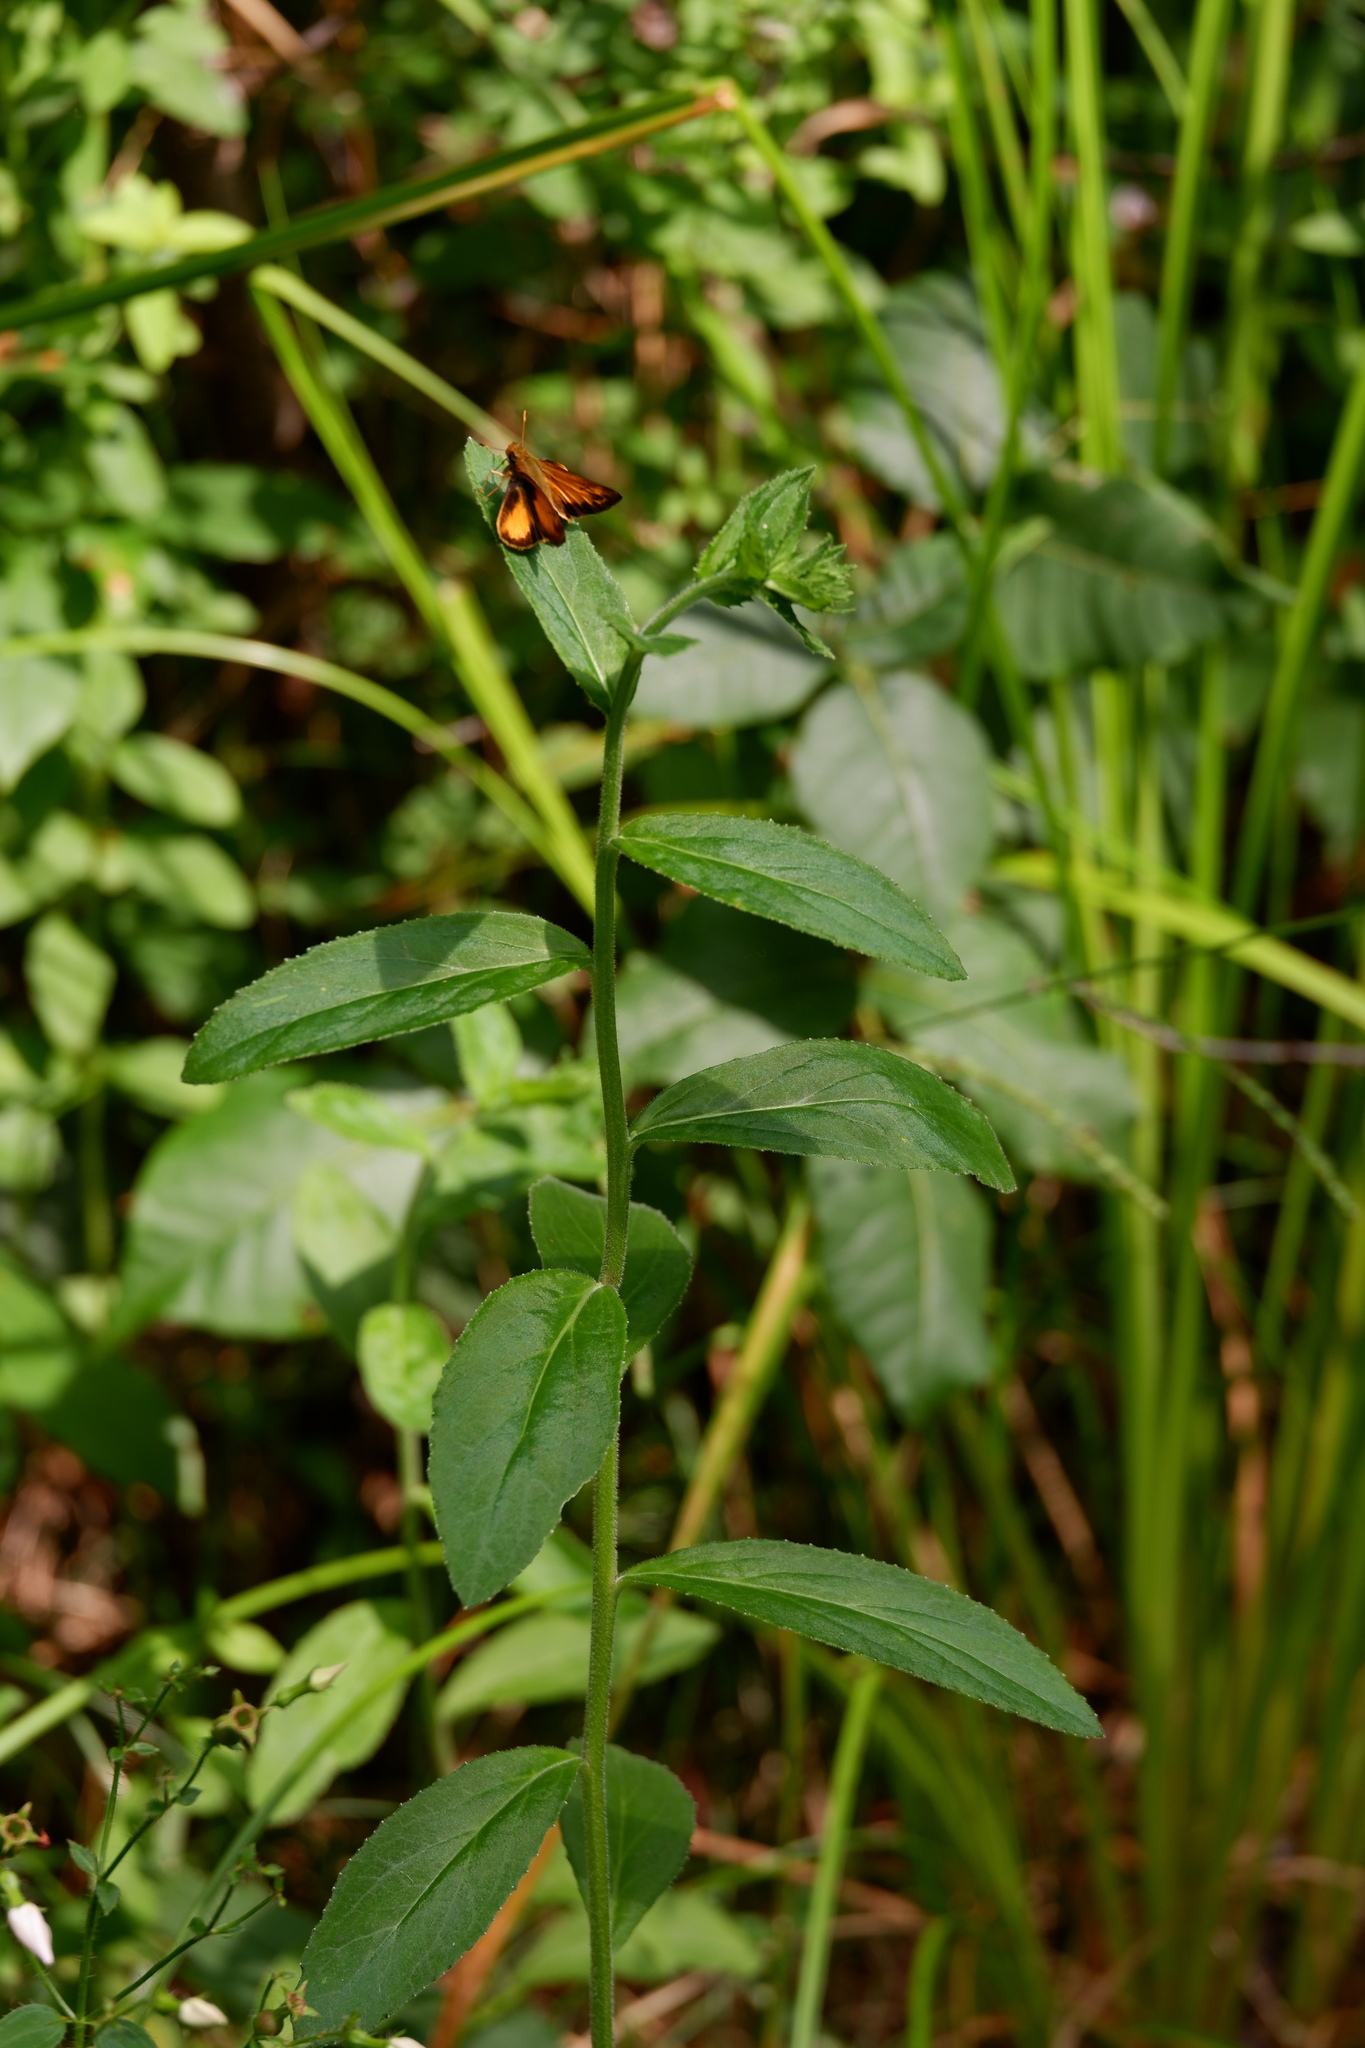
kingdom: Plantae
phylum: Tracheophyta
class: Magnoliopsida
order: Asterales
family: Campanulaceae
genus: Lobelia
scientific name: Lobelia puberula
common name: Purple dewdrop
